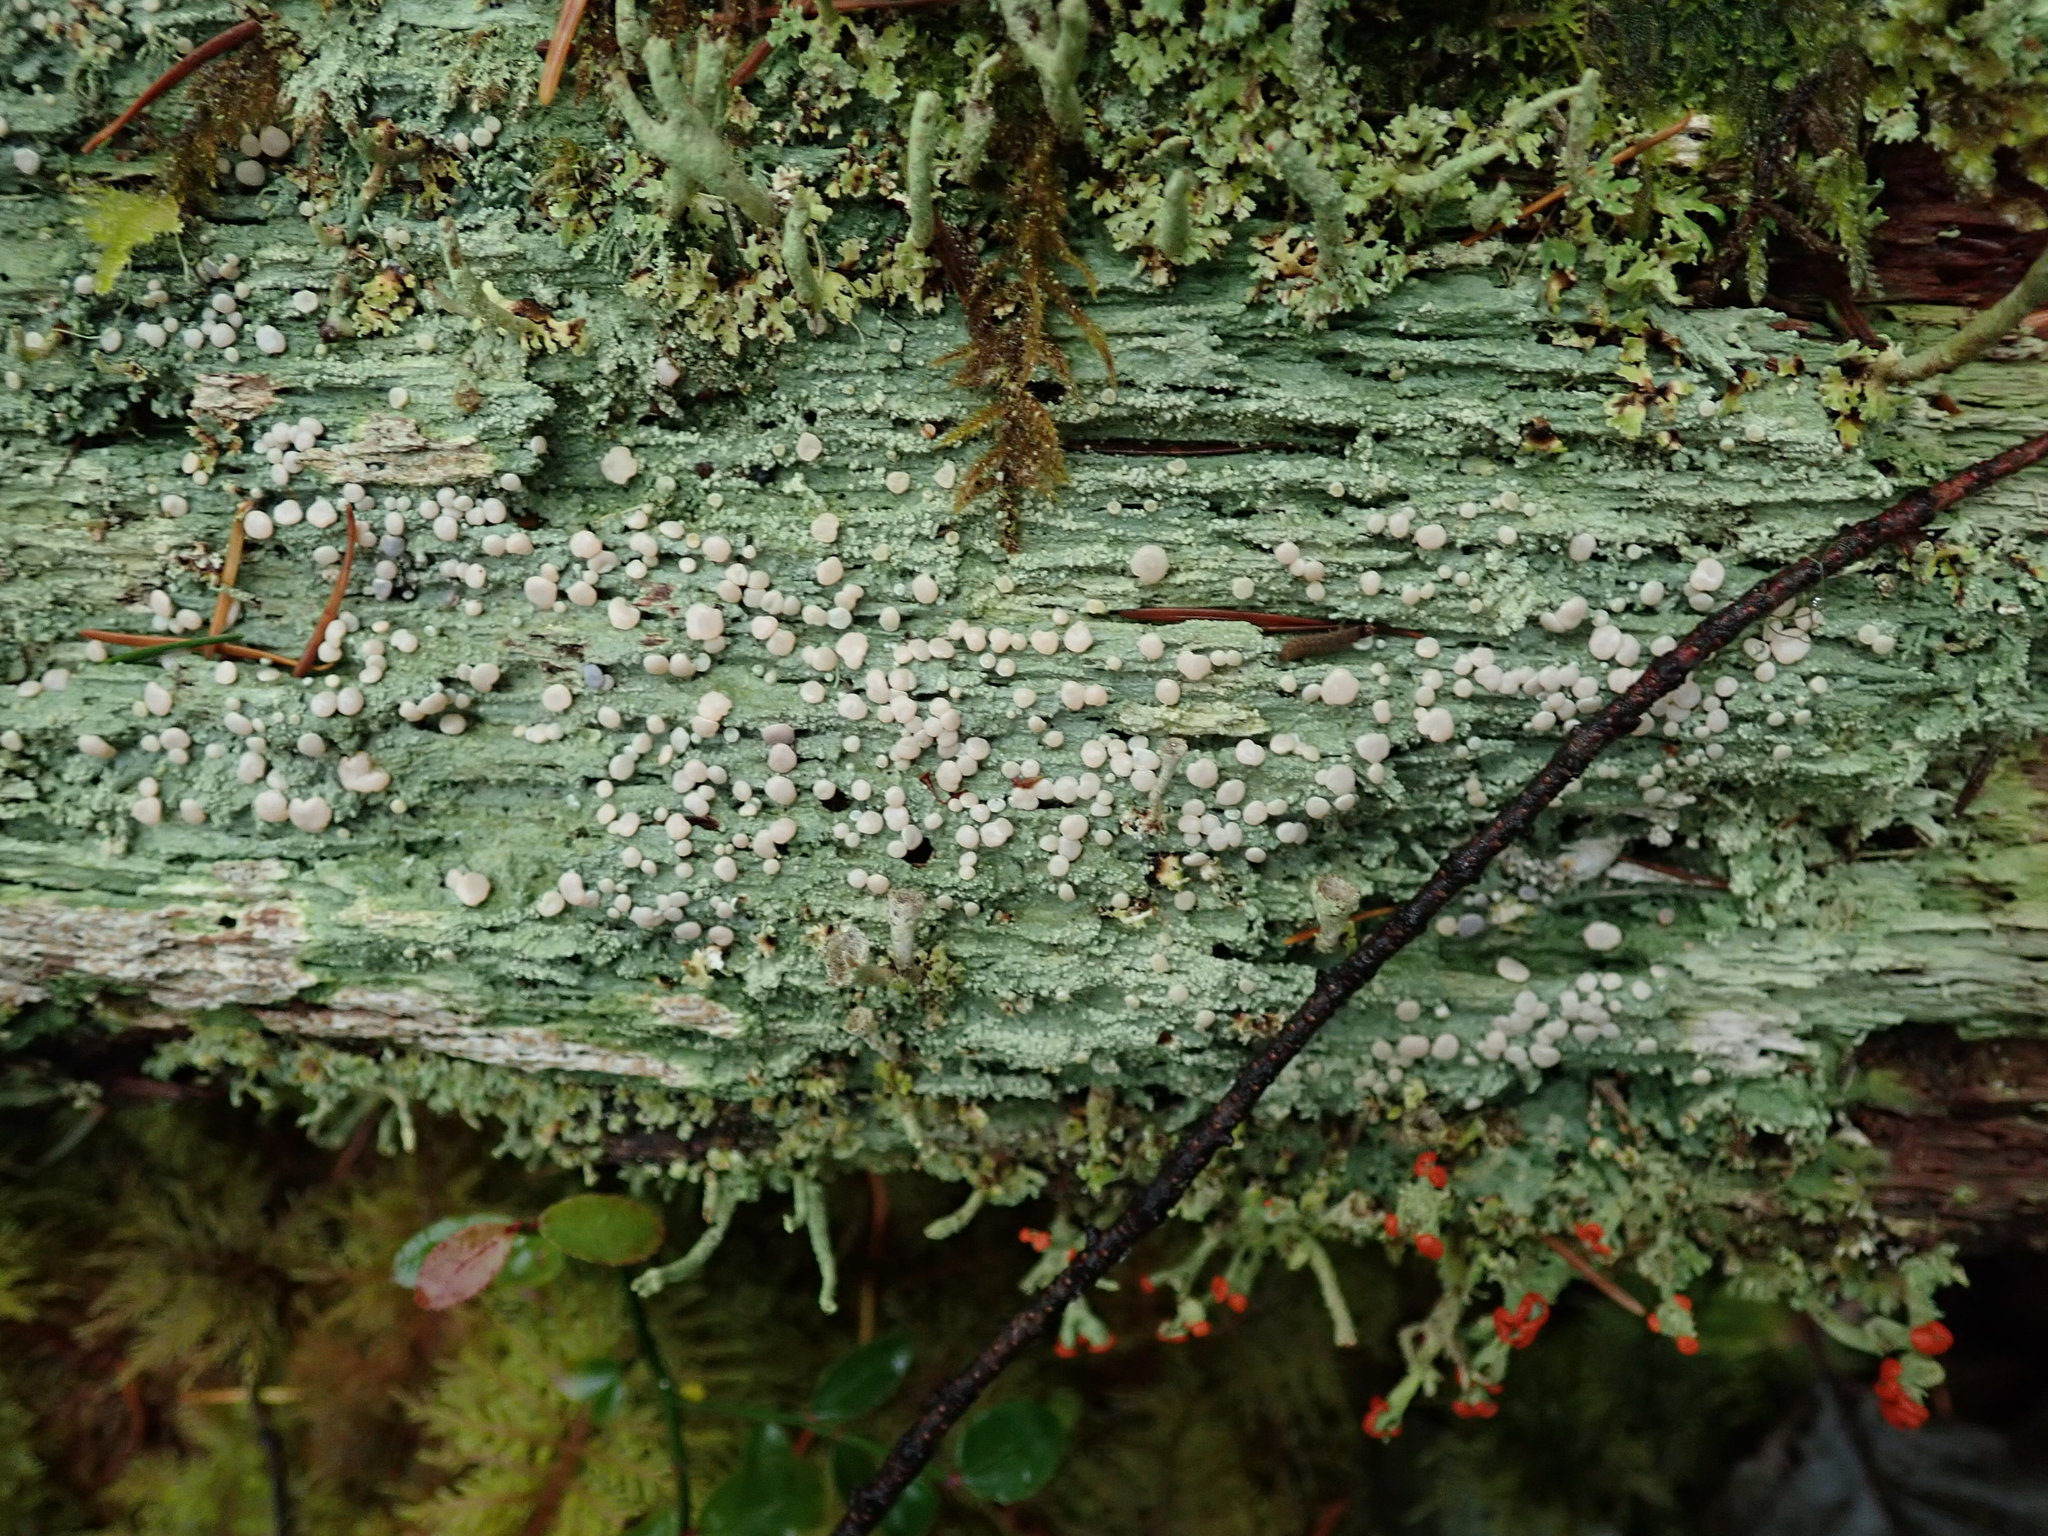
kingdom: Fungi
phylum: Ascomycota
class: Lecanoromycetes
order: Pertusariales
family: Icmadophilaceae
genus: Icmadophila
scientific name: Icmadophila ericetorum
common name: Candy lichen
